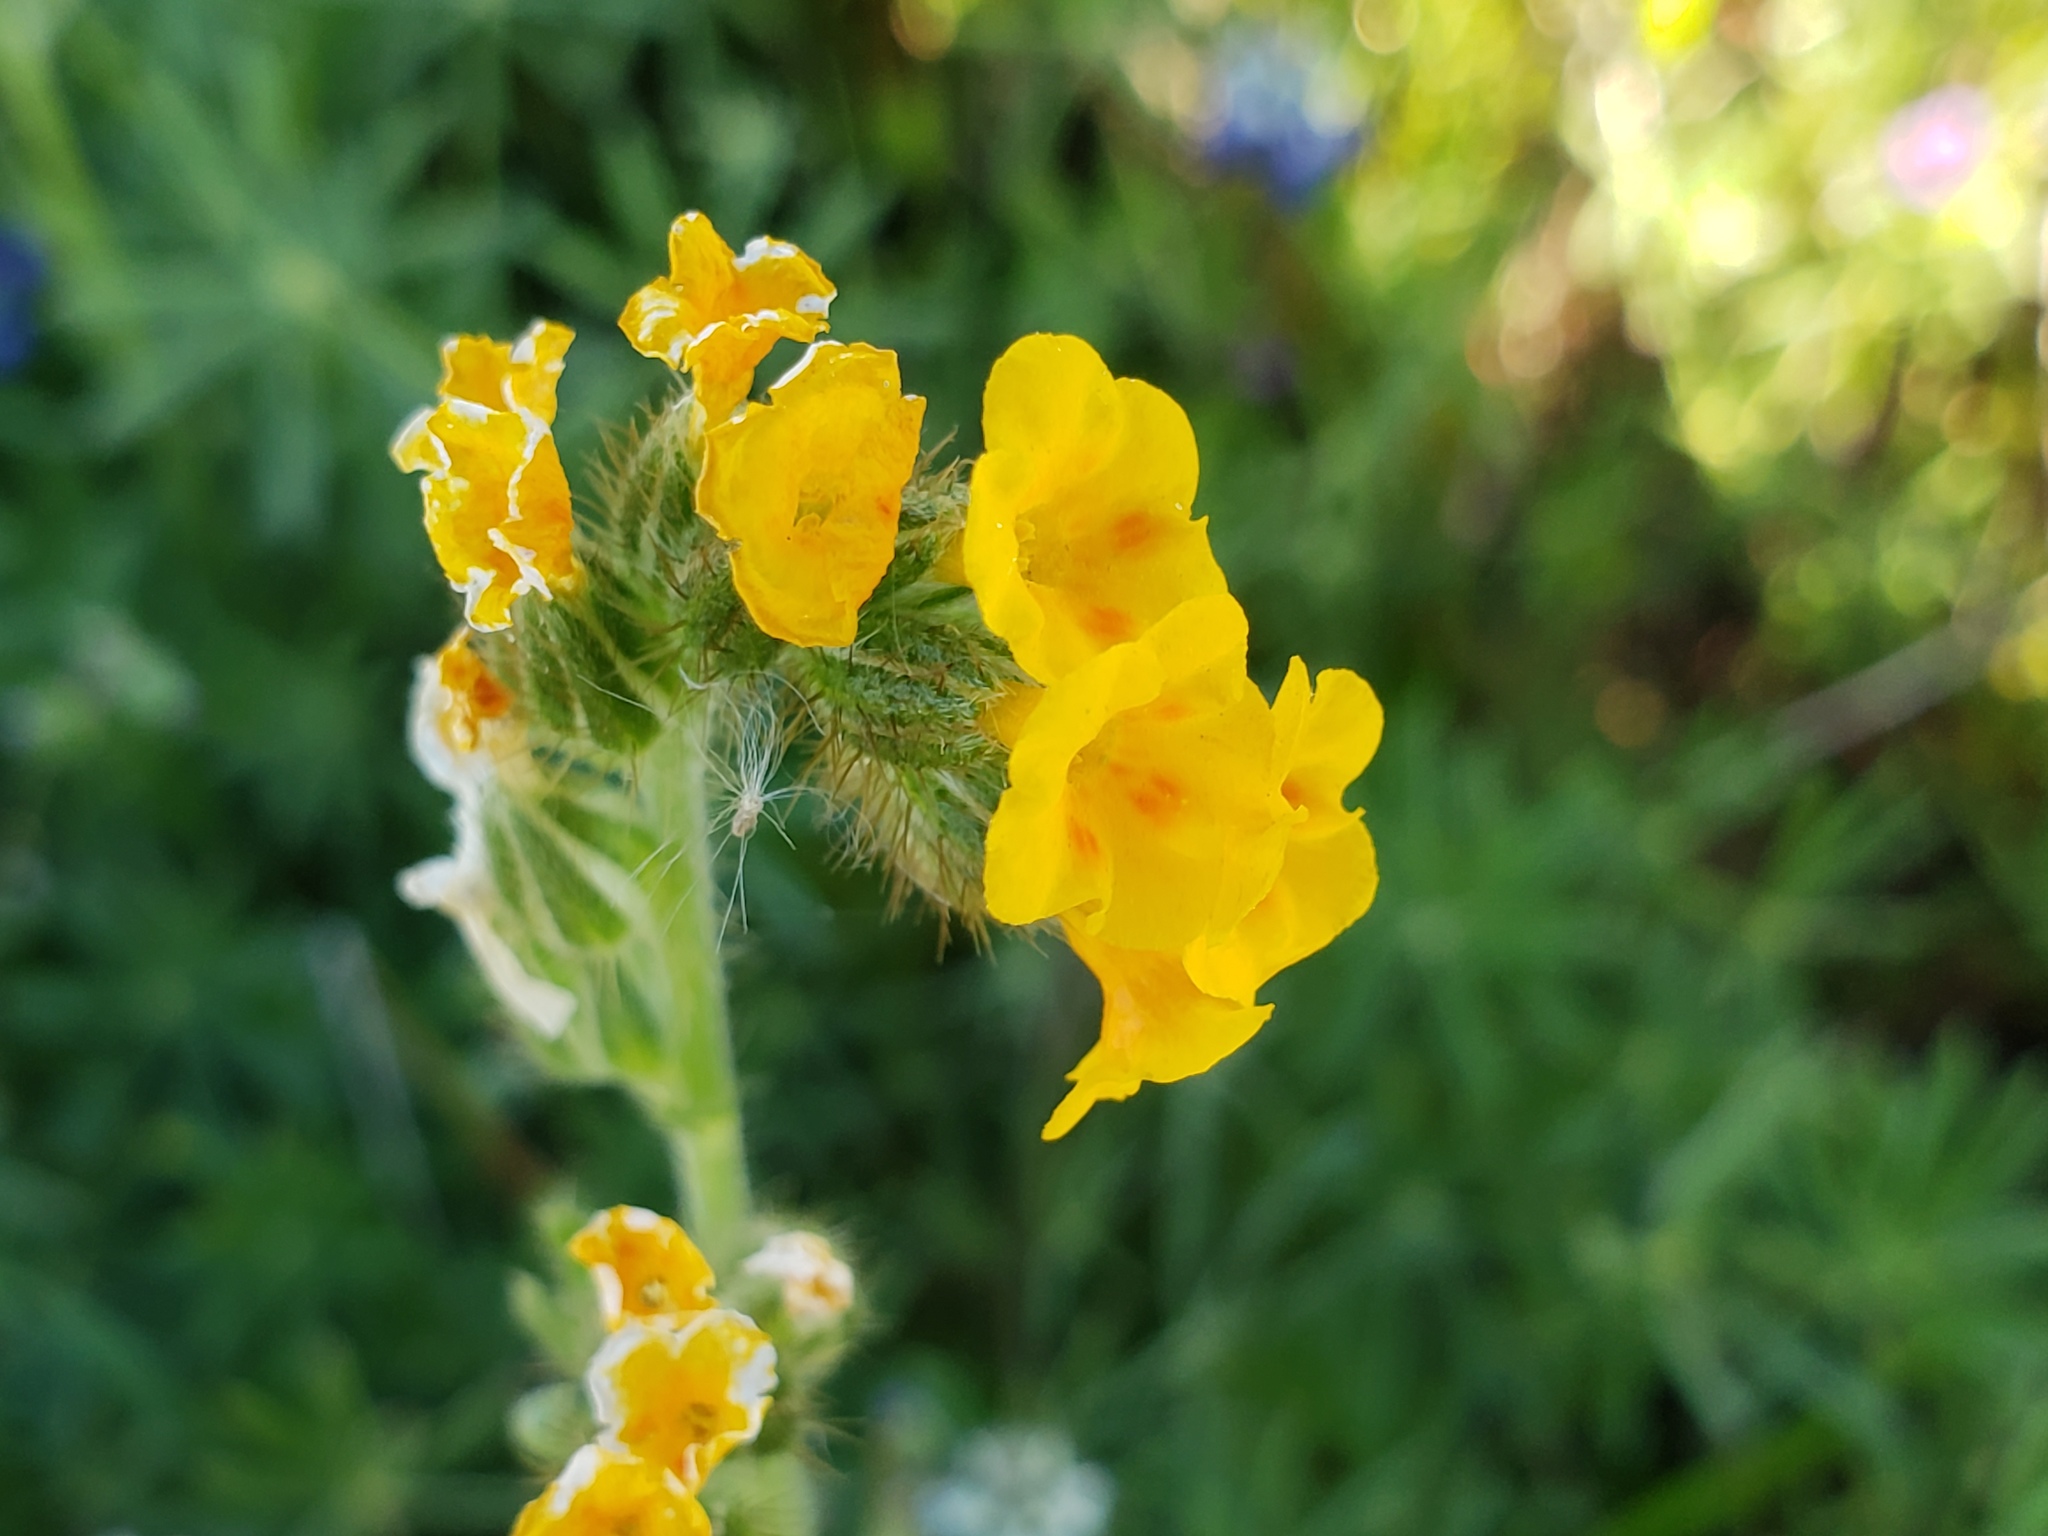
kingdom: Plantae
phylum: Tracheophyta
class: Magnoliopsida
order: Boraginales
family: Boraginaceae
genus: Amsinckia
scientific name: Amsinckia menziesii
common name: Menzies' fiddleneck
